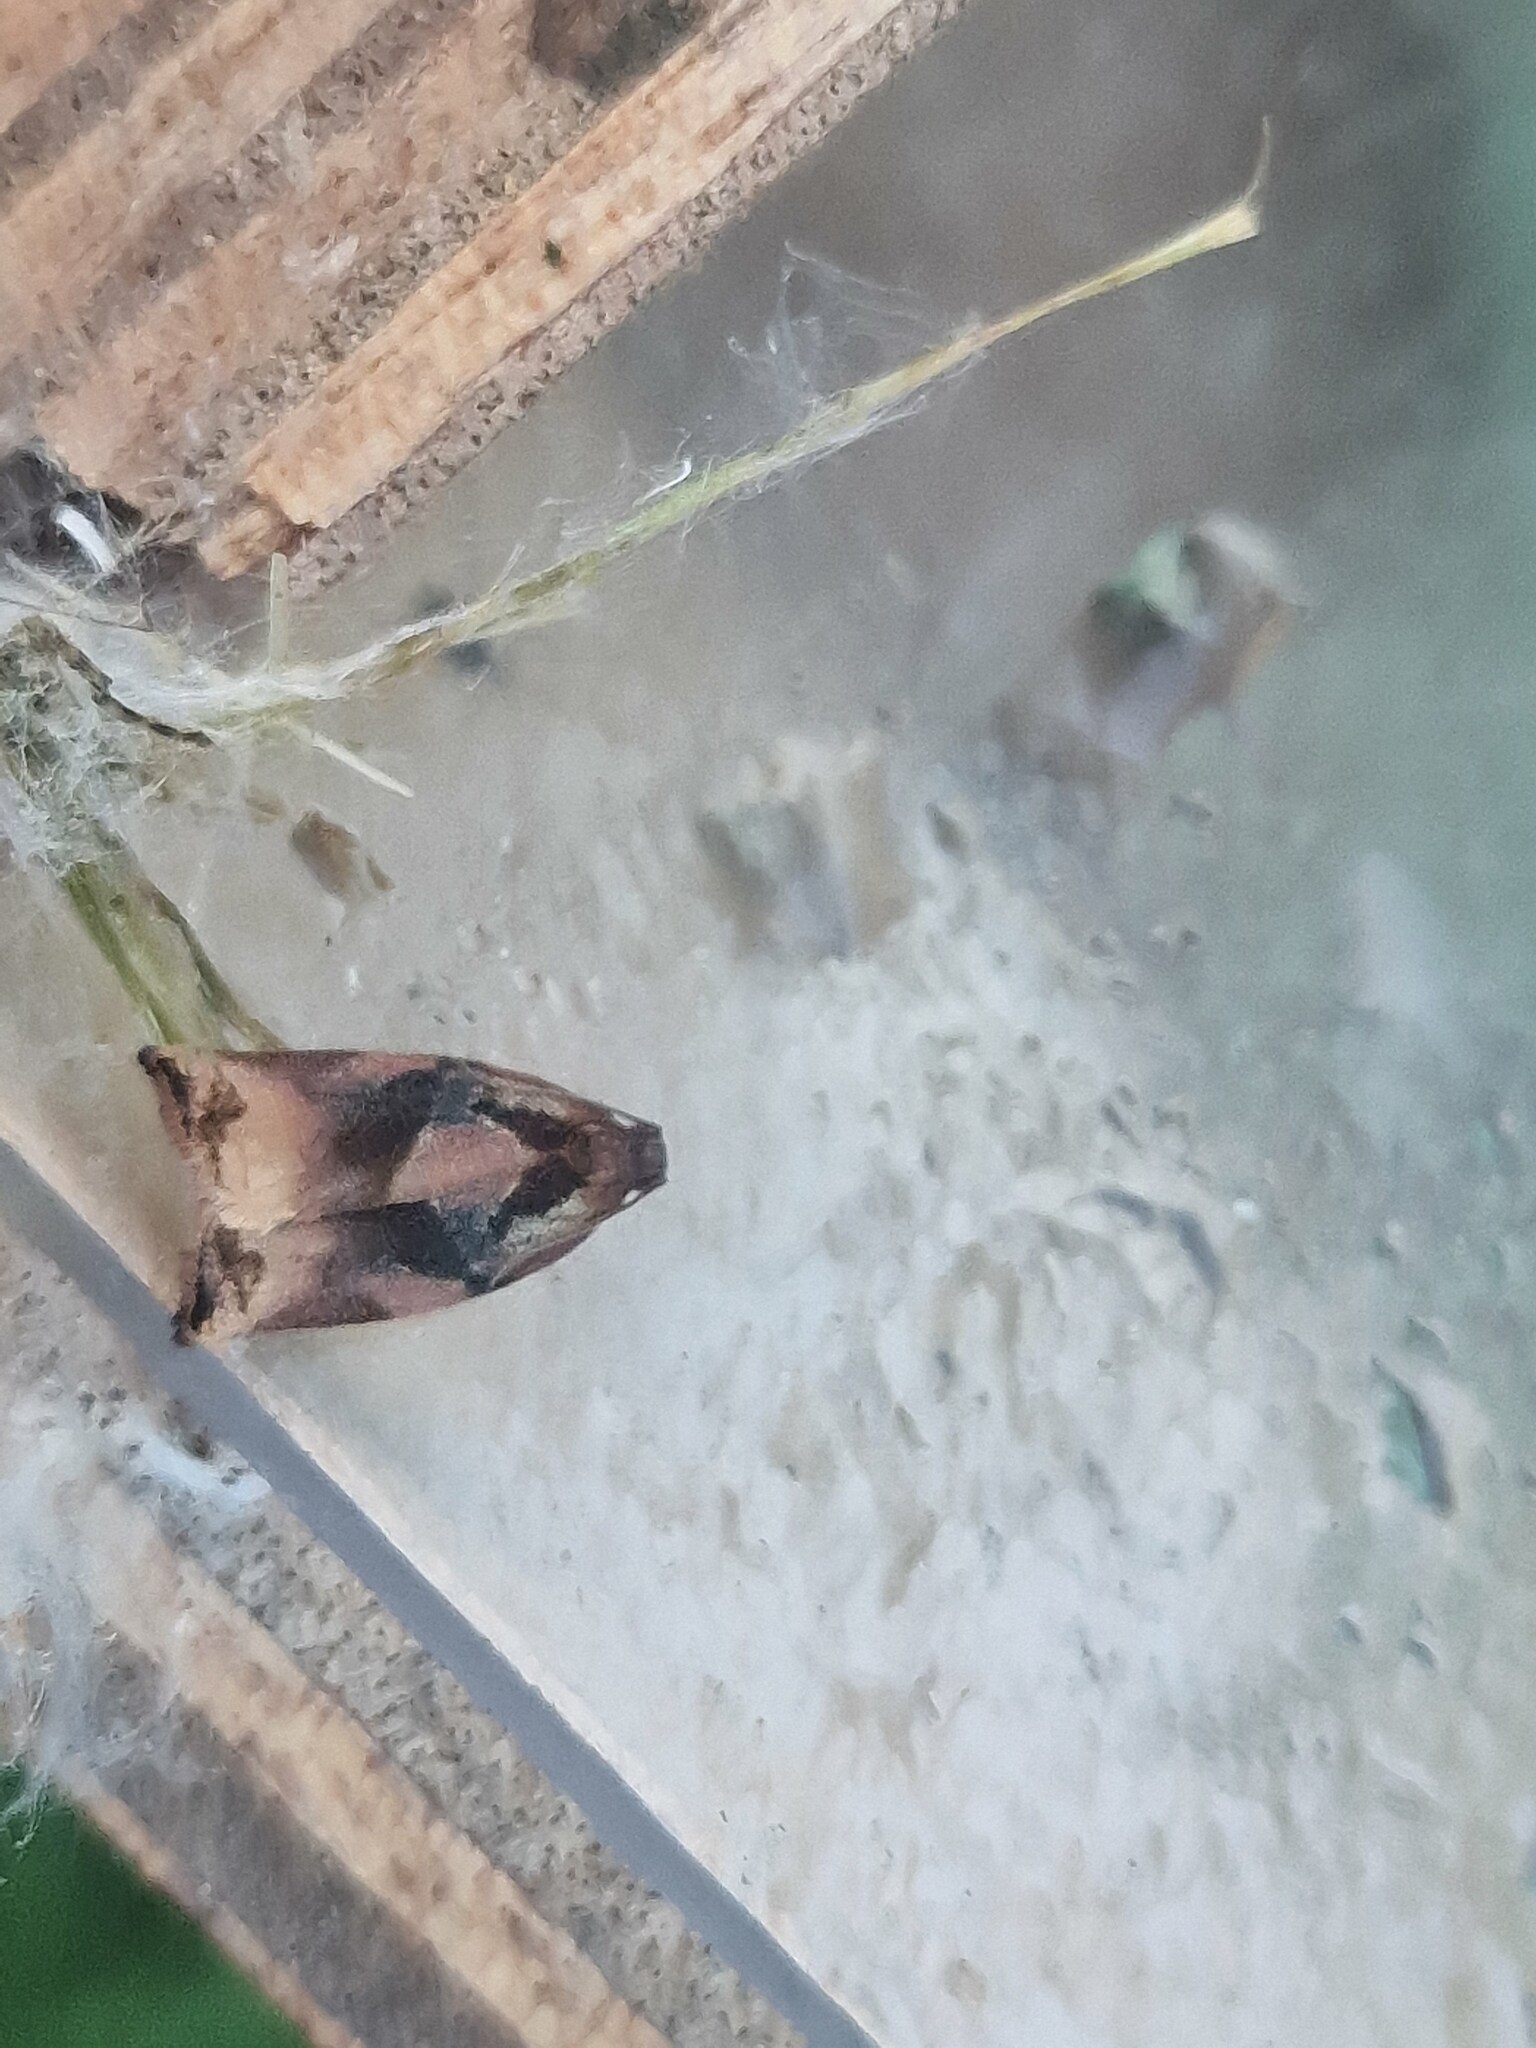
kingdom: Animalia
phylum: Arthropoda
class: Insecta
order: Lepidoptera
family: Tortricidae
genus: Archips
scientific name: Archips podana
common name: Large fruit-tree tortrix
